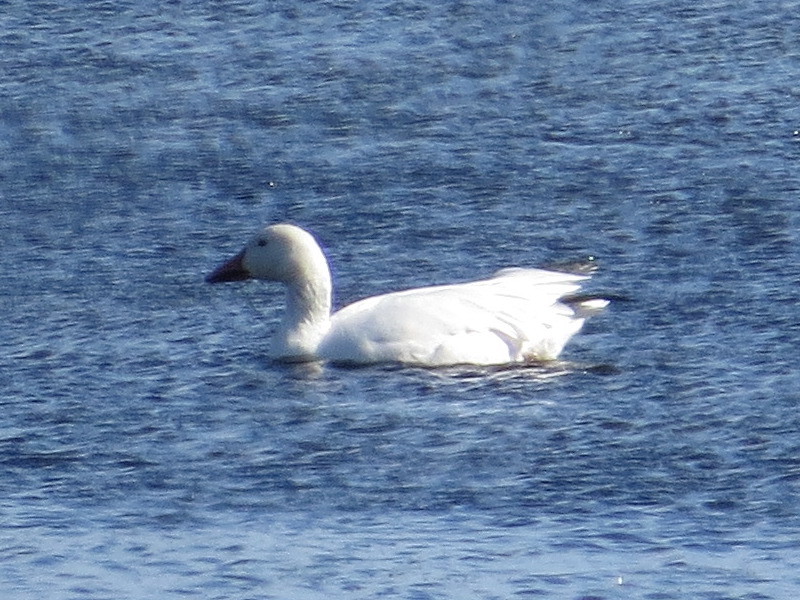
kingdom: Animalia
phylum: Chordata
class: Aves
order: Anseriformes
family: Anatidae
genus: Anser
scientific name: Anser caerulescens
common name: Snow goose
